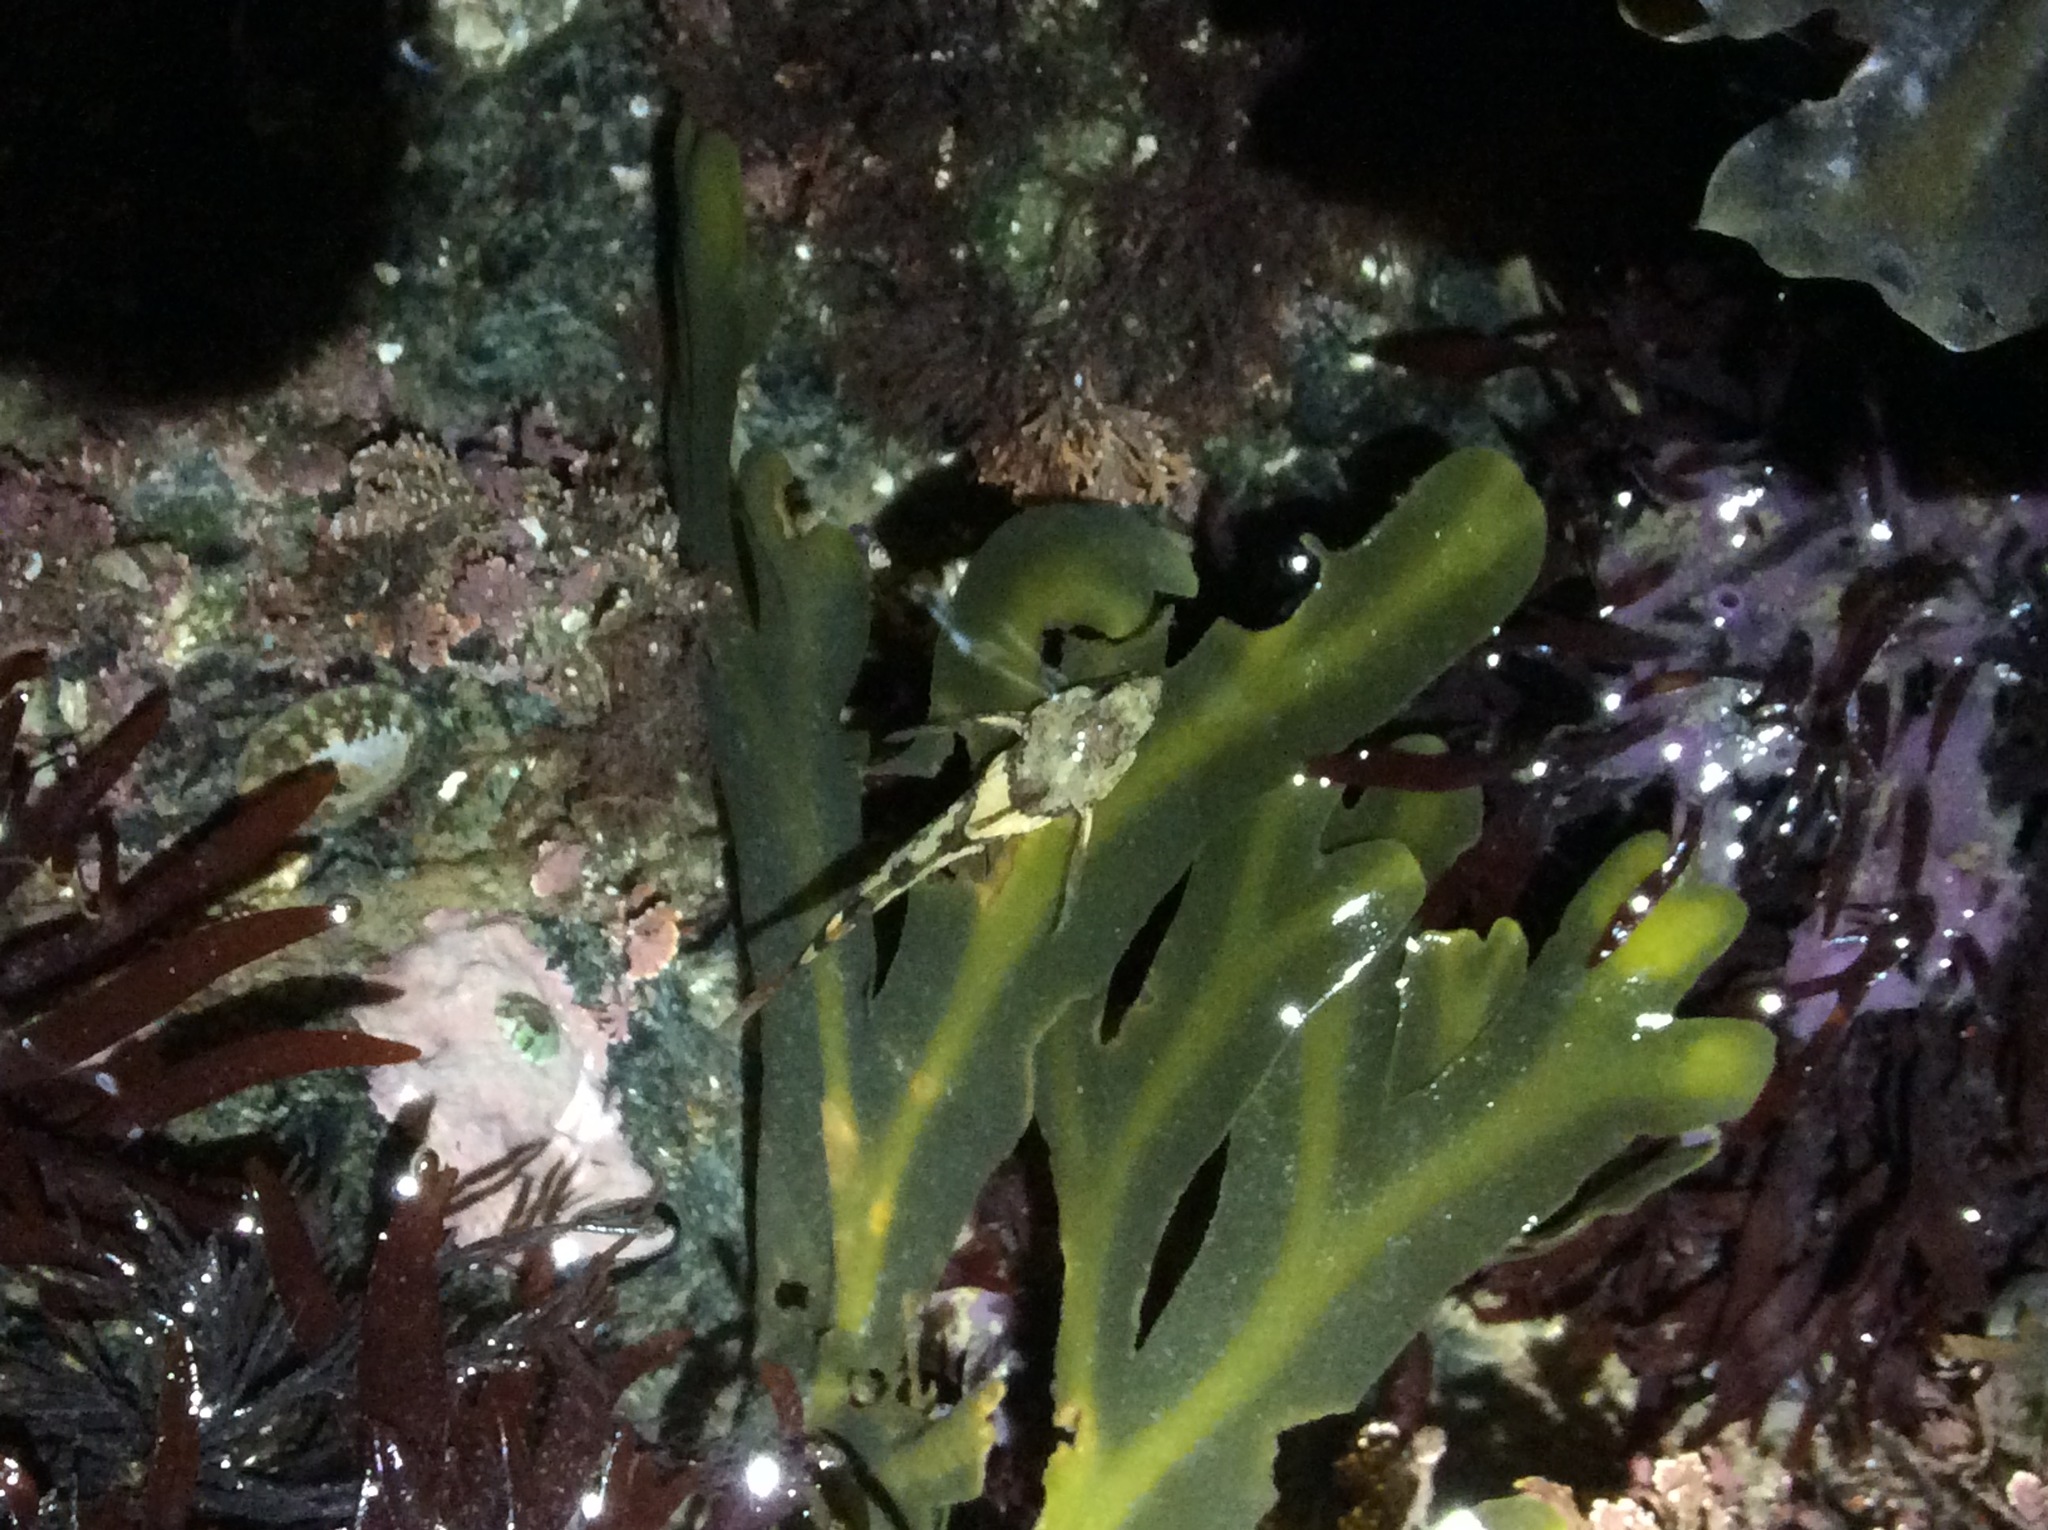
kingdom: Animalia
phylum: Chordata
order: Scorpaeniformes
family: Cottidae
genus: Oligocottus
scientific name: Oligocottus maculosus
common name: Tidepool sculpin
